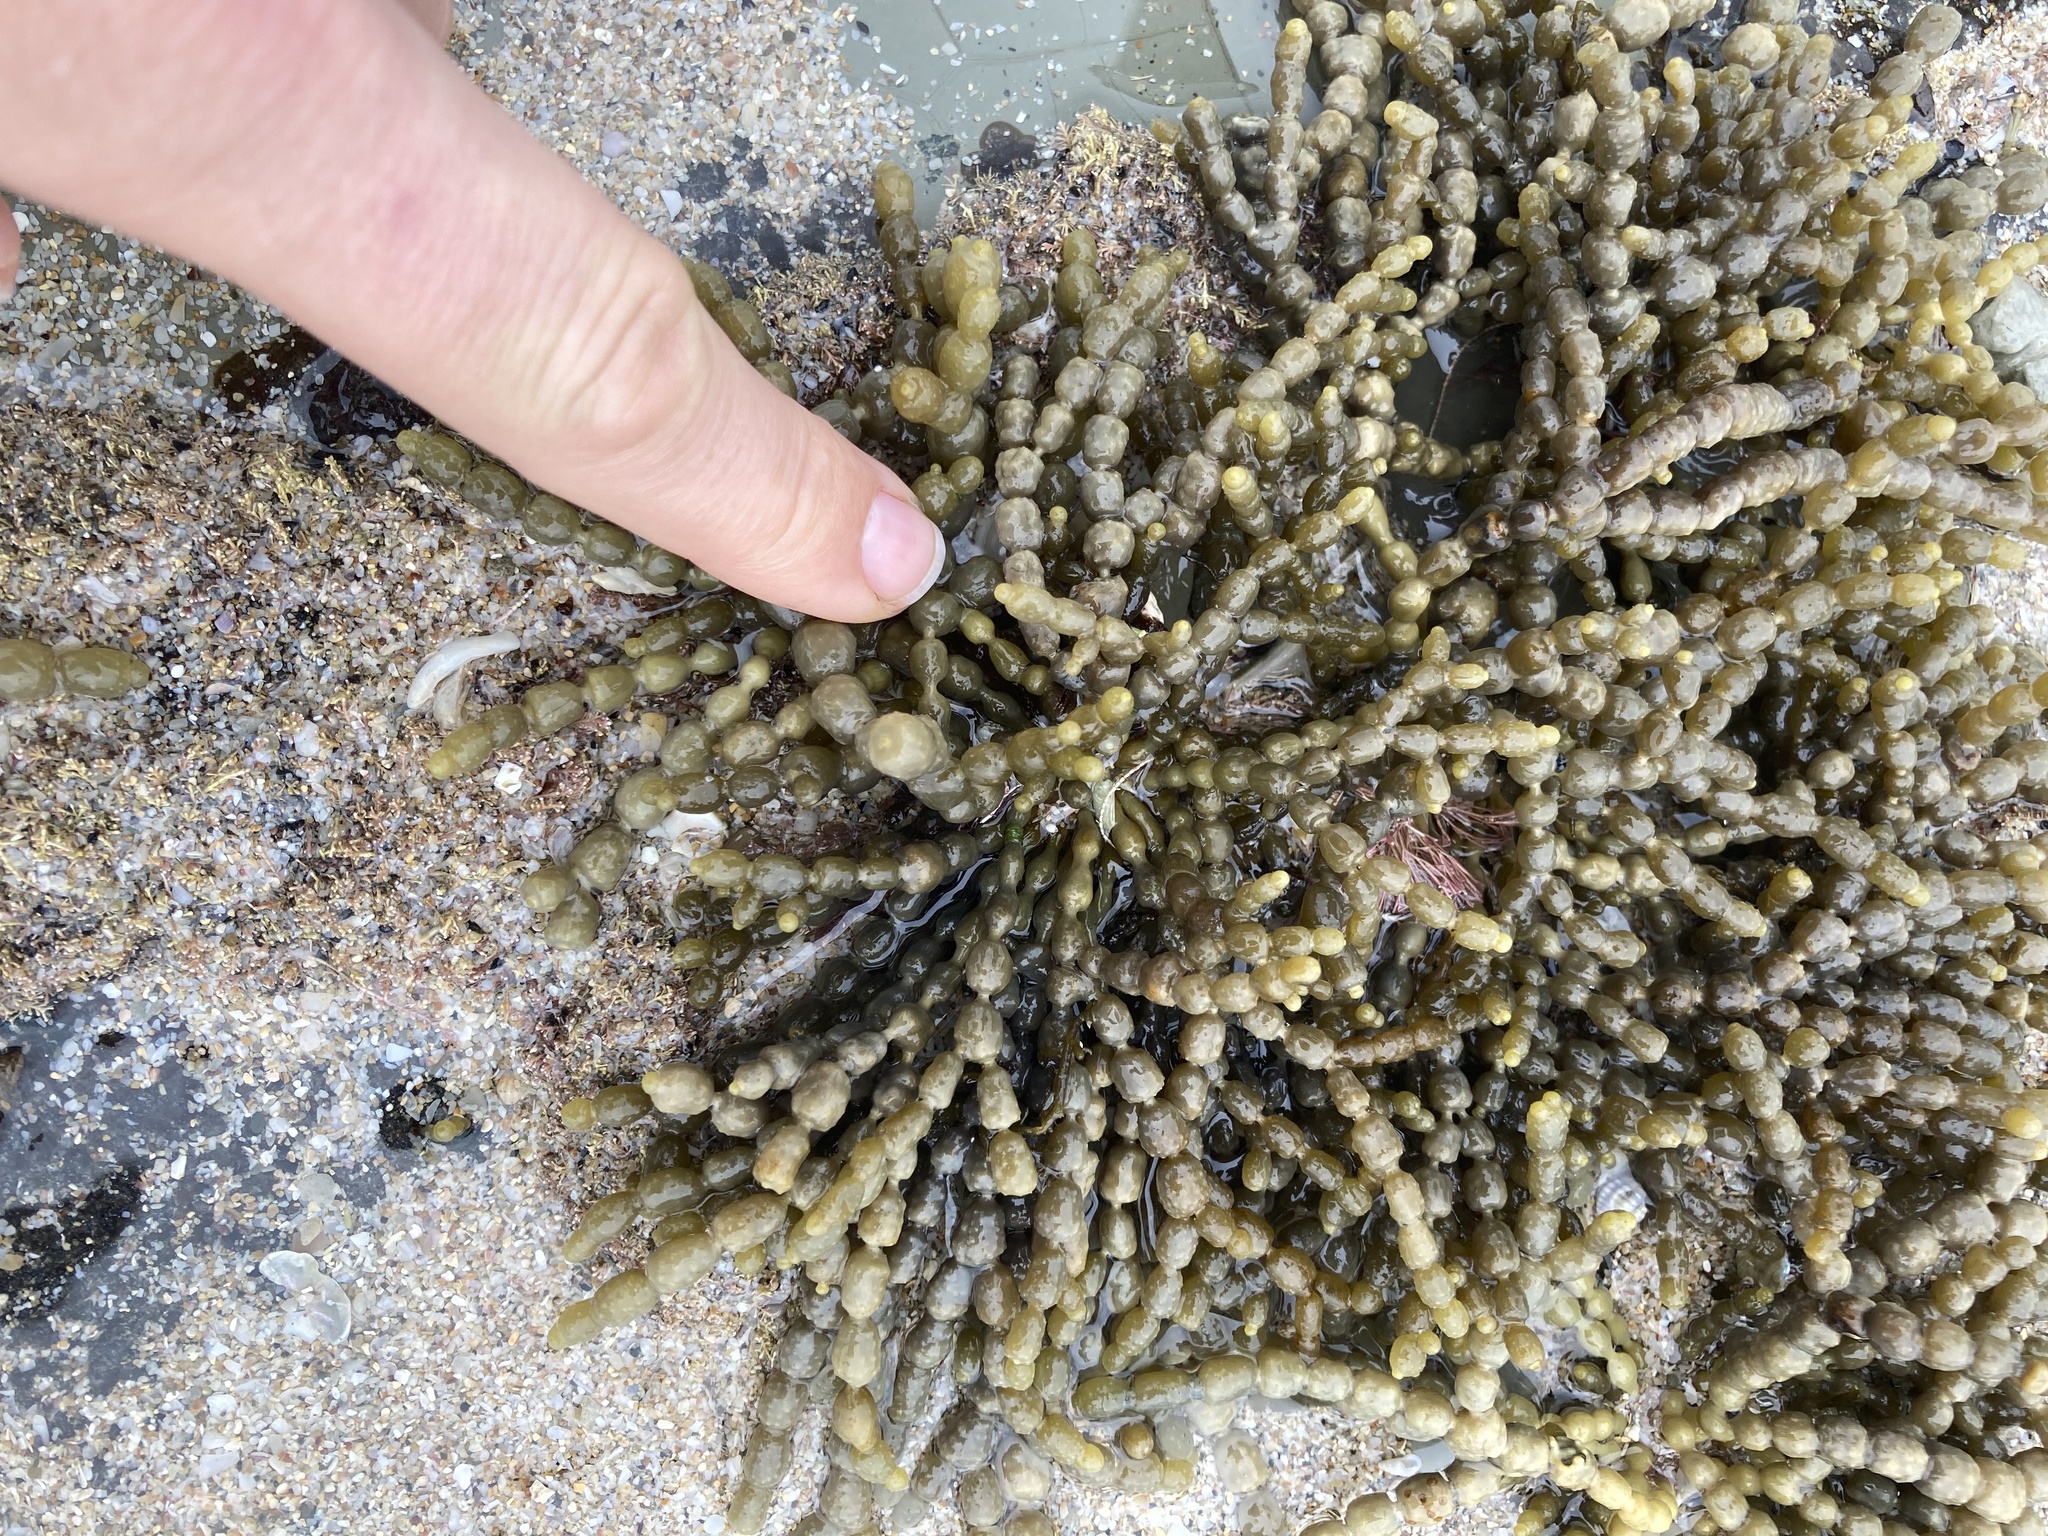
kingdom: Chromista
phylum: Ochrophyta
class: Phaeophyceae
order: Fucales
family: Hormosiraceae
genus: Hormosira
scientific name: Hormosira banksii
